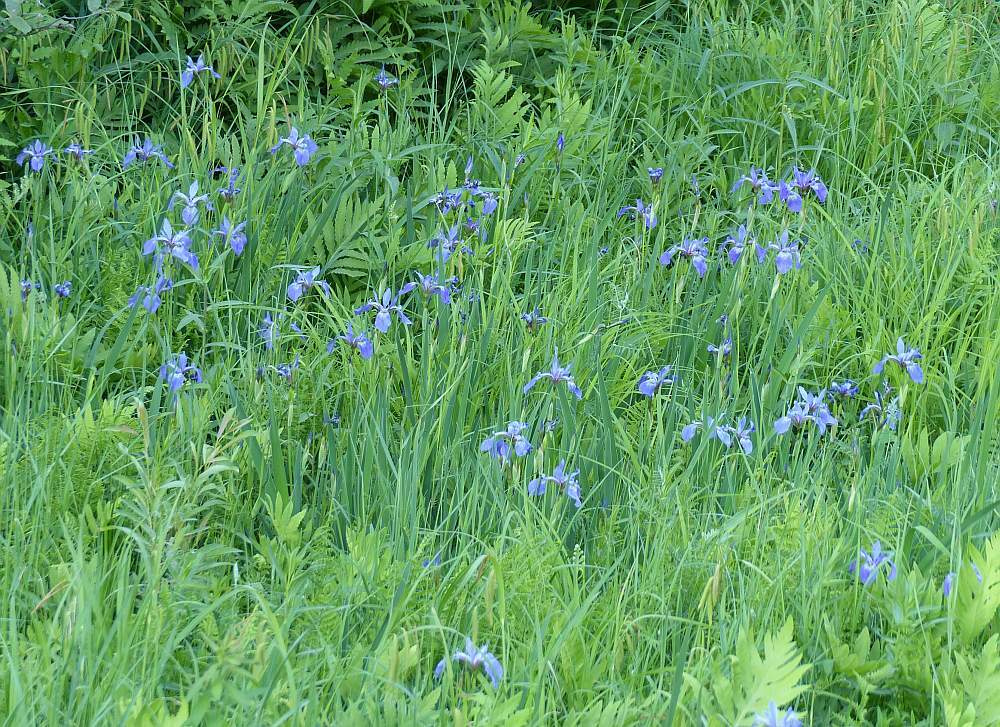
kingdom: Plantae
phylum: Tracheophyta
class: Liliopsida
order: Asparagales
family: Iridaceae
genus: Iris
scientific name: Iris versicolor
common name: Purple iris
